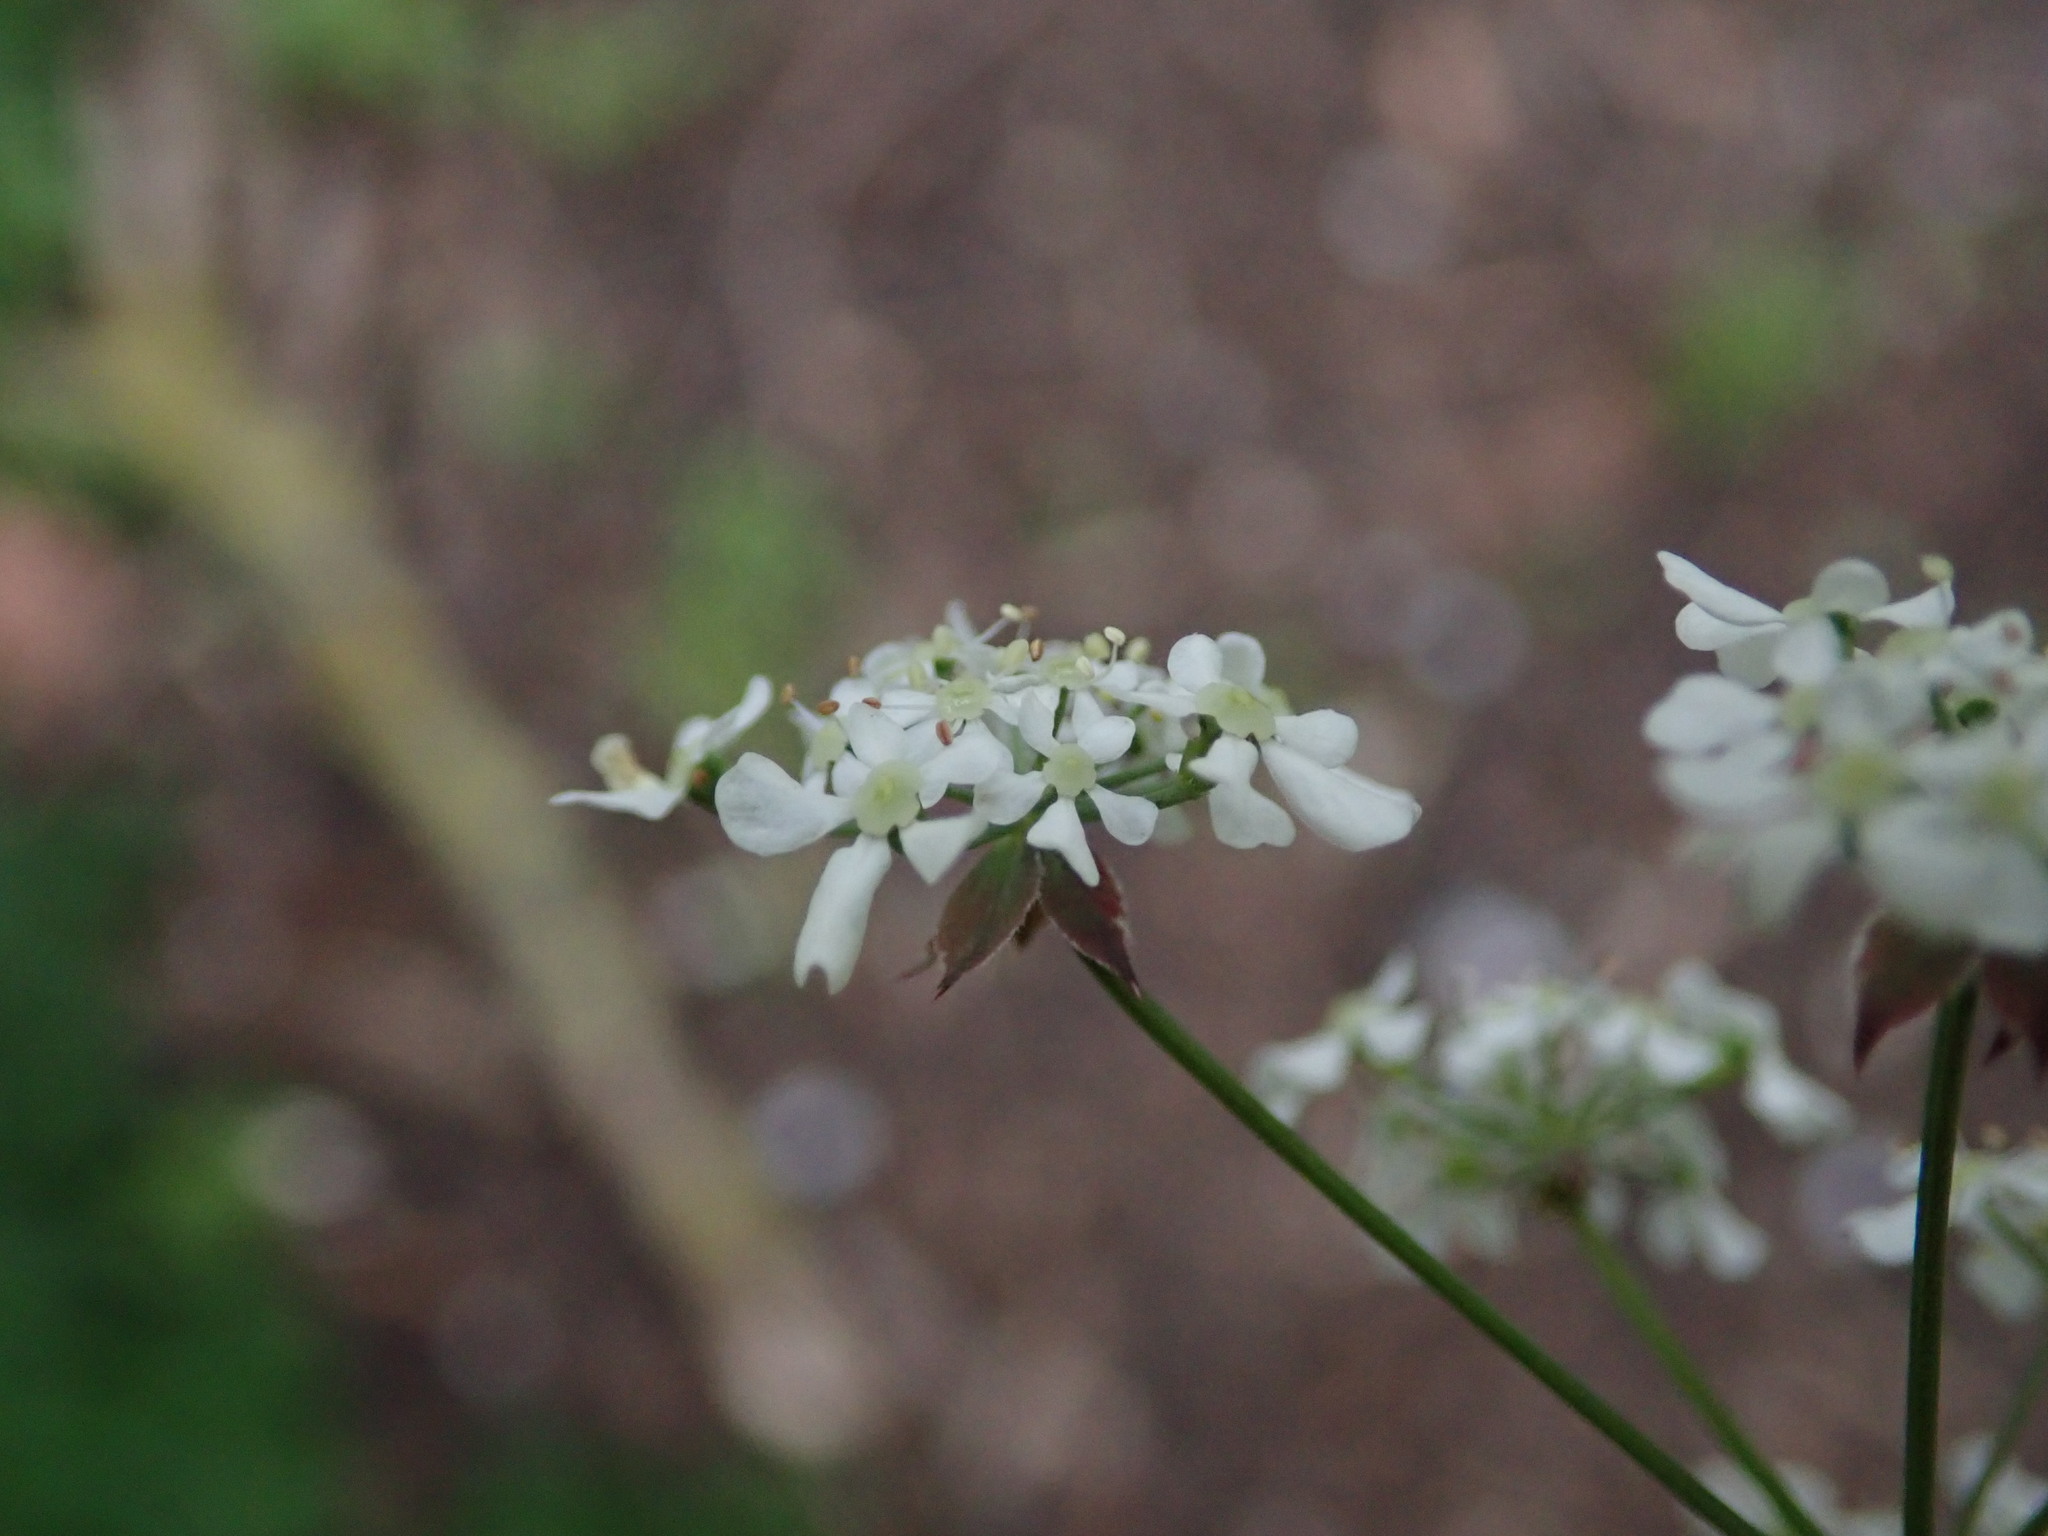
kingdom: Plantae
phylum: Tracheophyta
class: Magnoliopsida
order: Apiales
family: Apiaceae
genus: Anthriscus
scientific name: Anthriscus sylvestris
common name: Cow parsley
